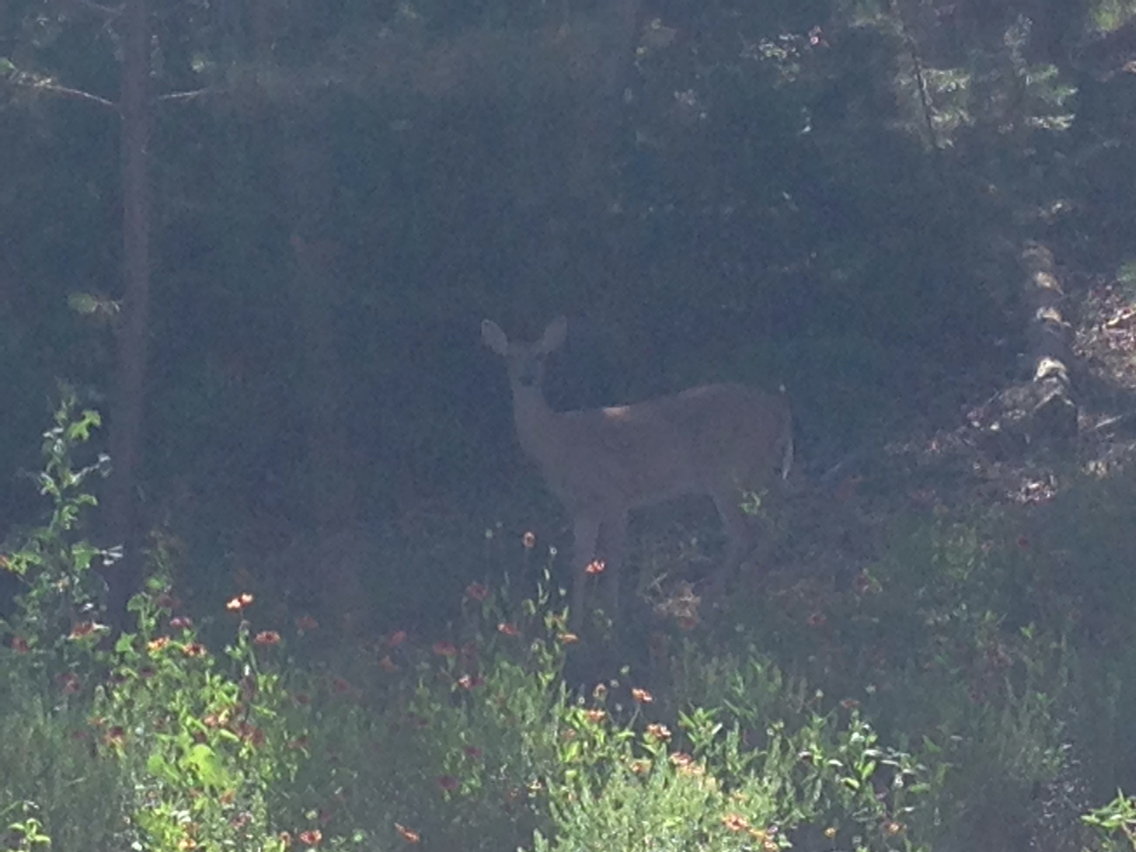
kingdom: Animalia
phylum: Chordata
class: Mammalia
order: Artiodactyla
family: Cervidae
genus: Odocoileus
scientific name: Odocoileus virginianus
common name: White-tailed deer
